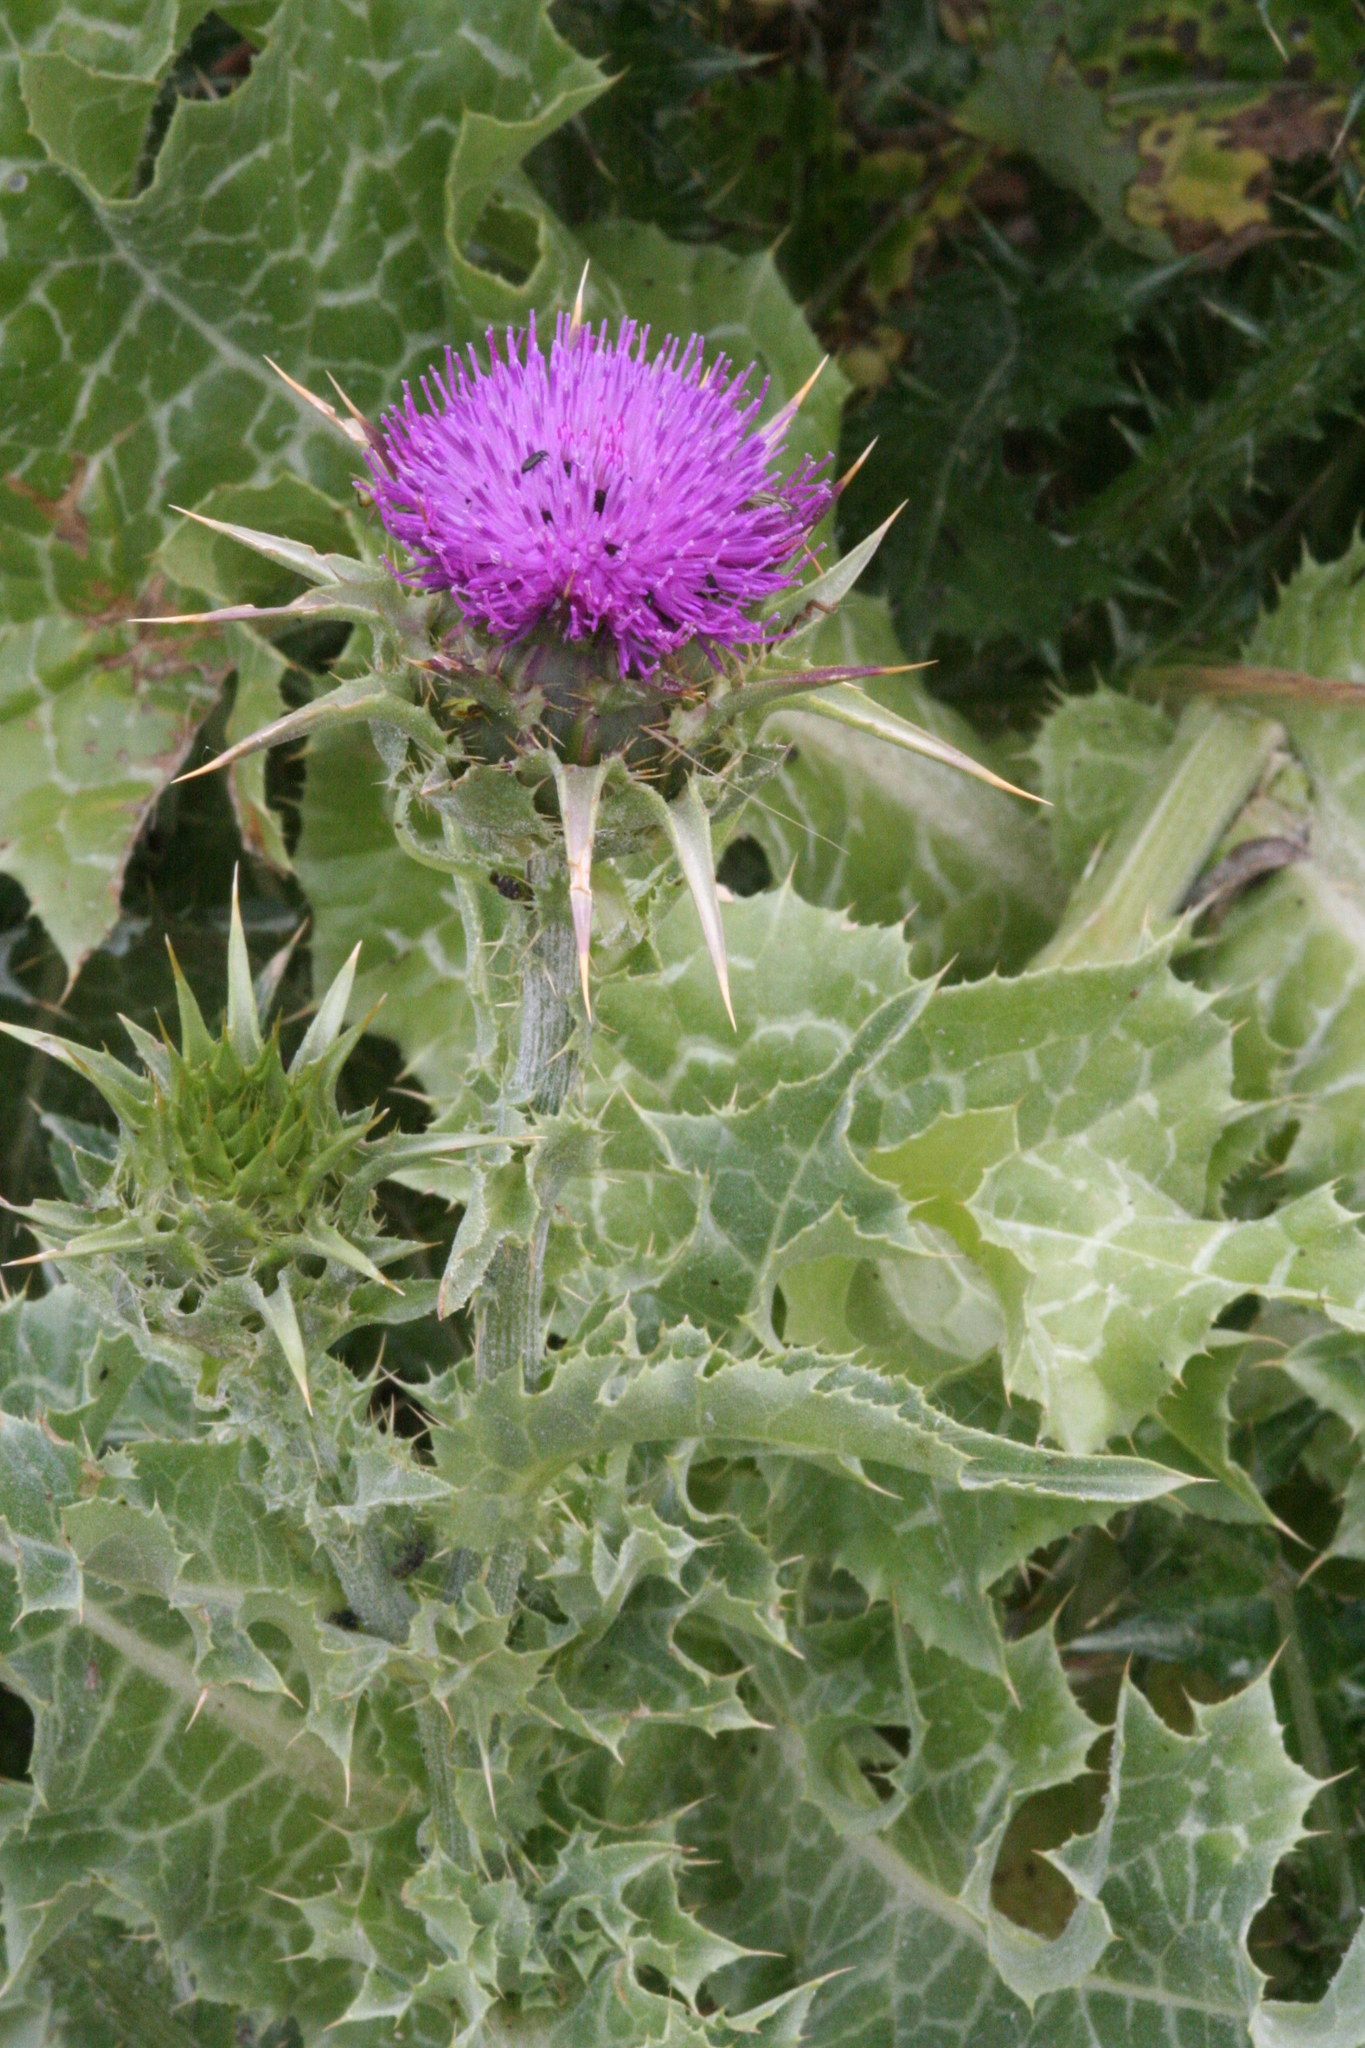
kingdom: Plantae
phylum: Tracheophyta
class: Magnoliopsida
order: Asterales
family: Asteraceae
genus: Silybum
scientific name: Silybum marianum
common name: Milk thistle
